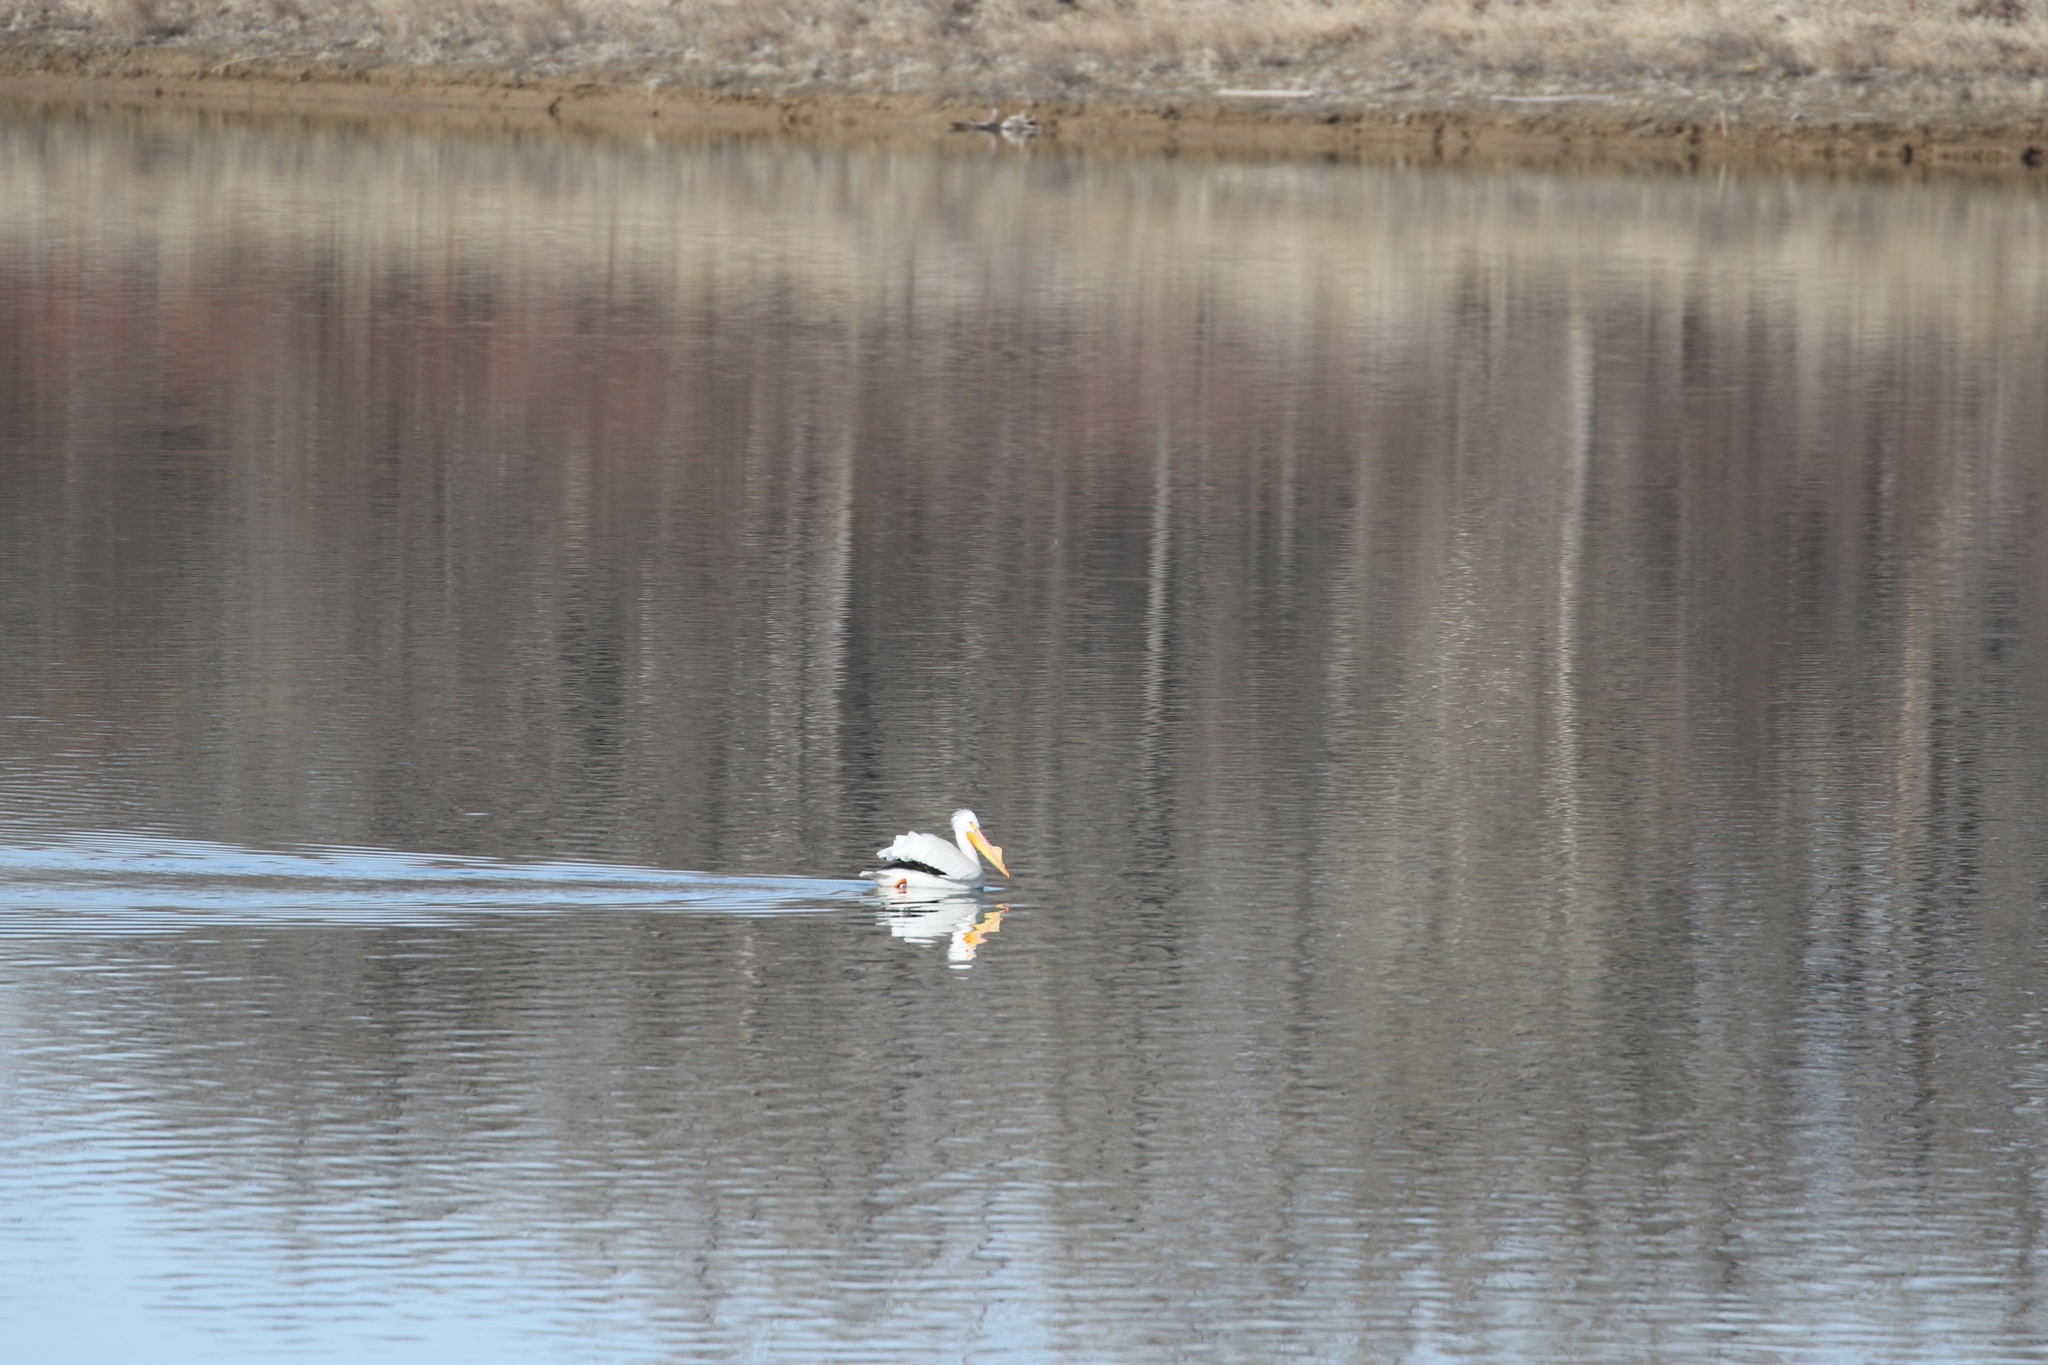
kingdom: Animalia
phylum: Chordata
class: Aves
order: Pelecaniformes
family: Pelecanidae
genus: Pelecanus
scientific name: Pelecanus erythrorhynchos
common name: American white pelican
